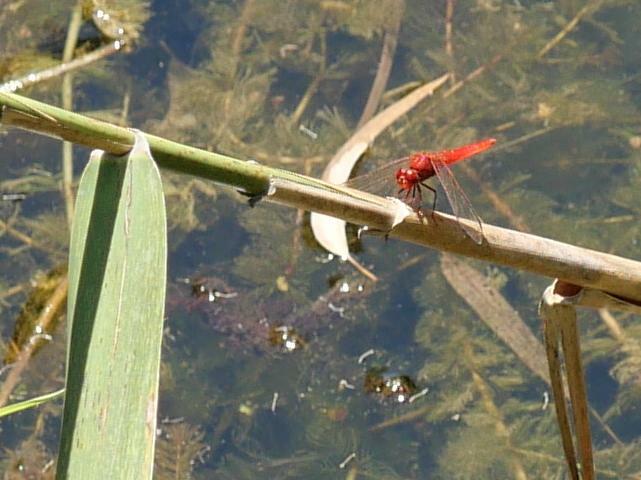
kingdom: Animalia
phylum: Arthropoda
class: Insecta
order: Odonata
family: Libellulidae
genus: Crocothemis
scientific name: Crocothemis erythraea
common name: Scarlet dragonfly
